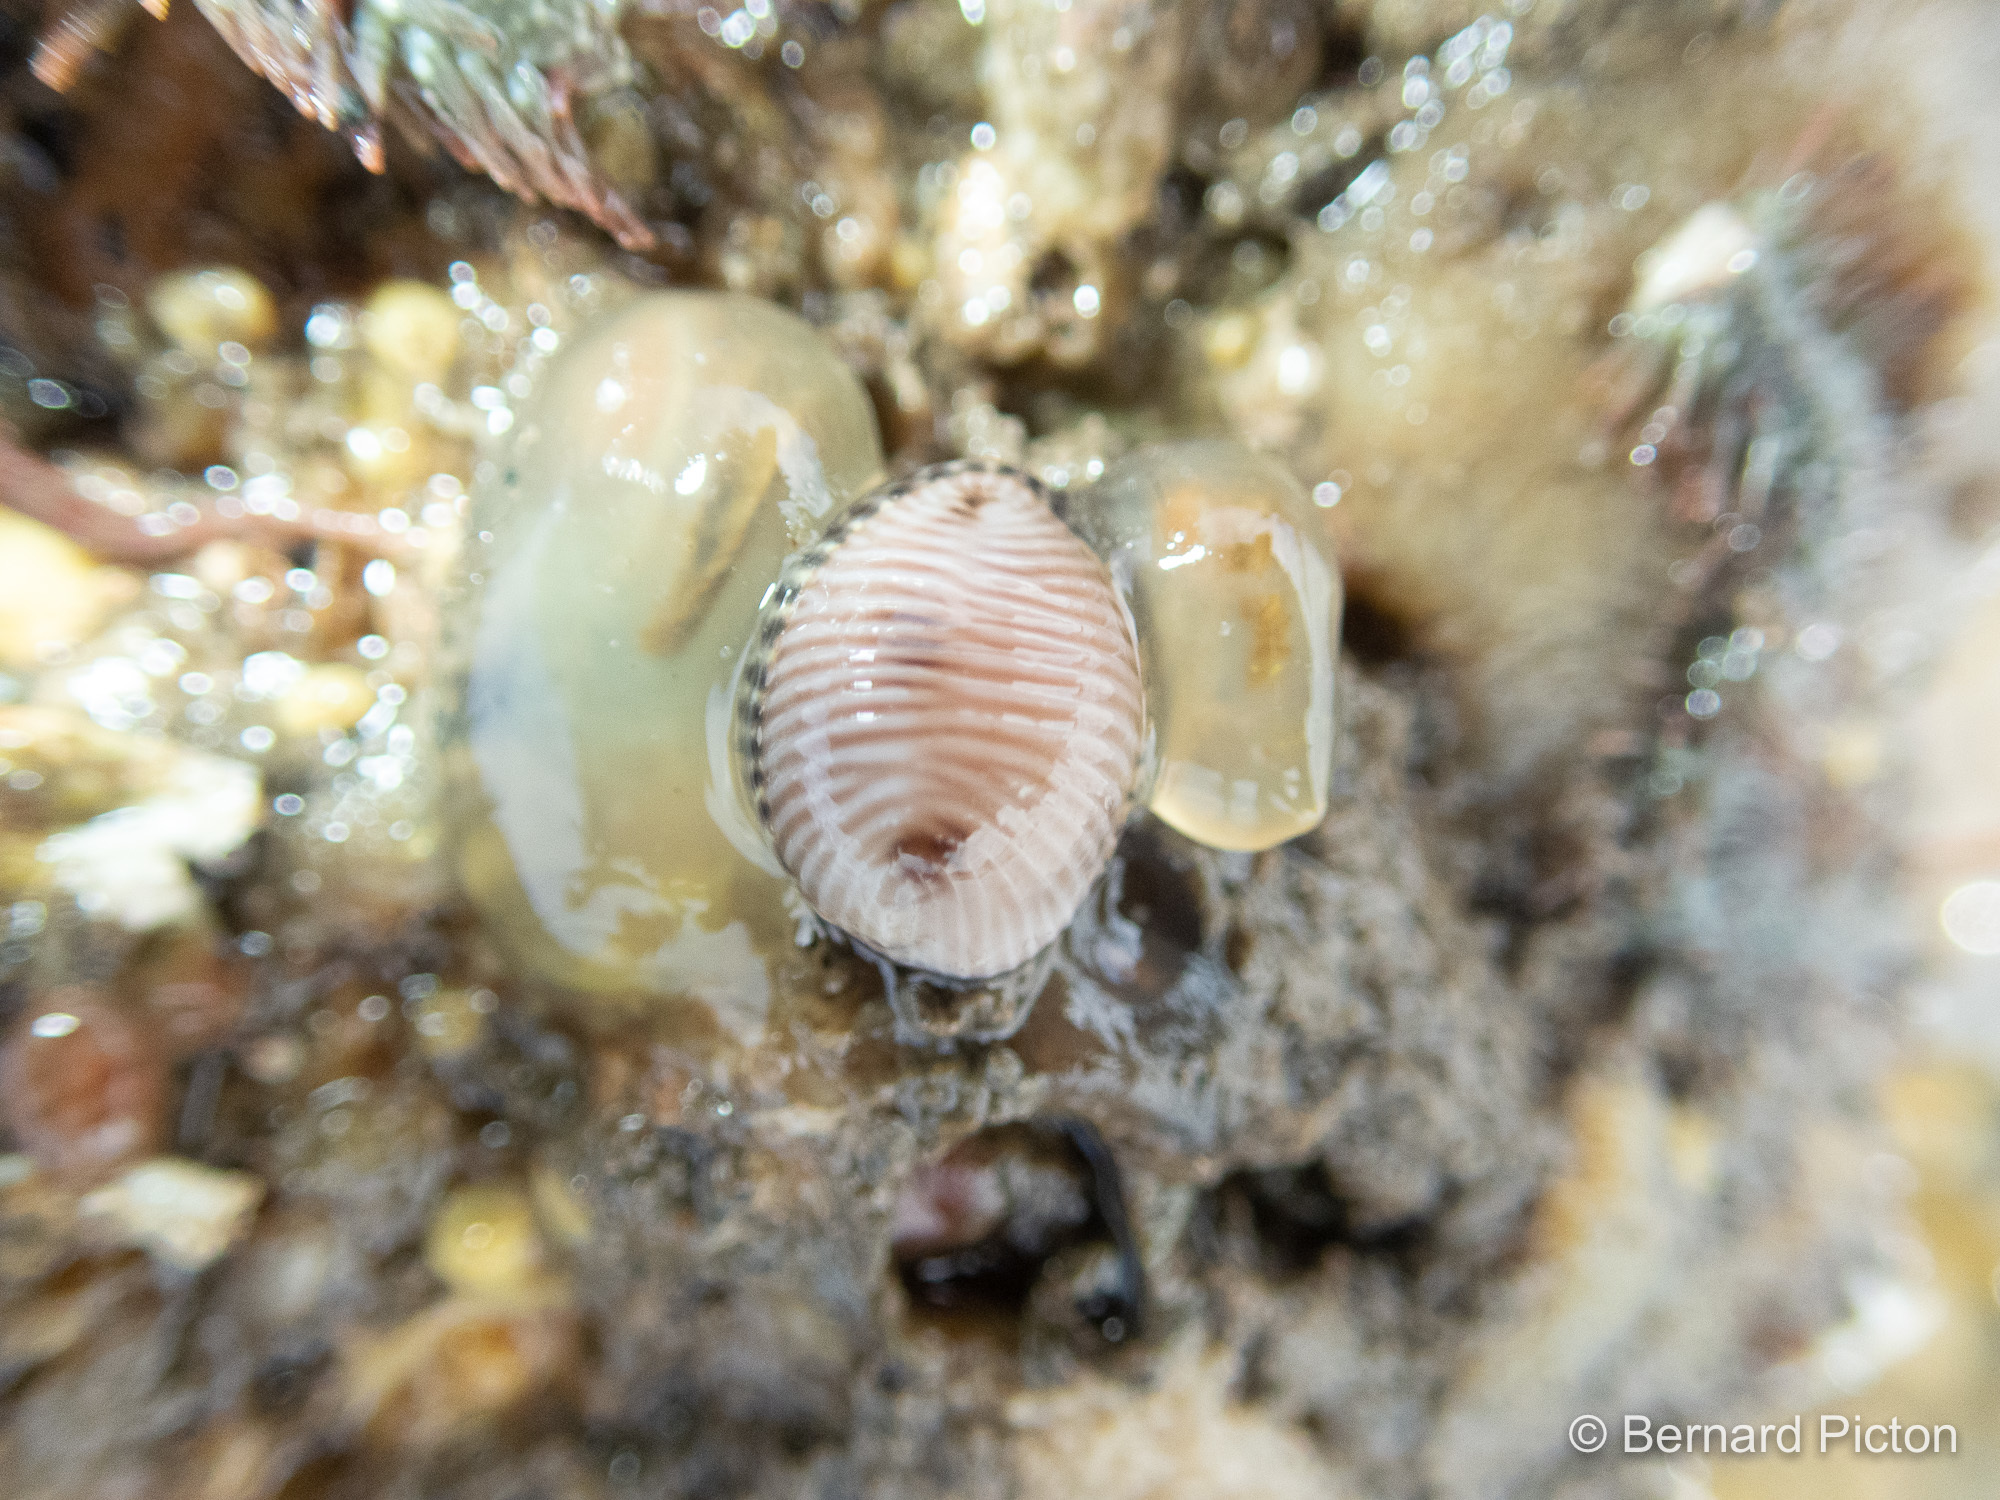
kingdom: Animalia
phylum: Mollusca
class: Gastropoda
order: Littorinimorpha
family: Triviidae
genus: Trivia
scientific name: Trivia monacha
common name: Spotted cowrie
